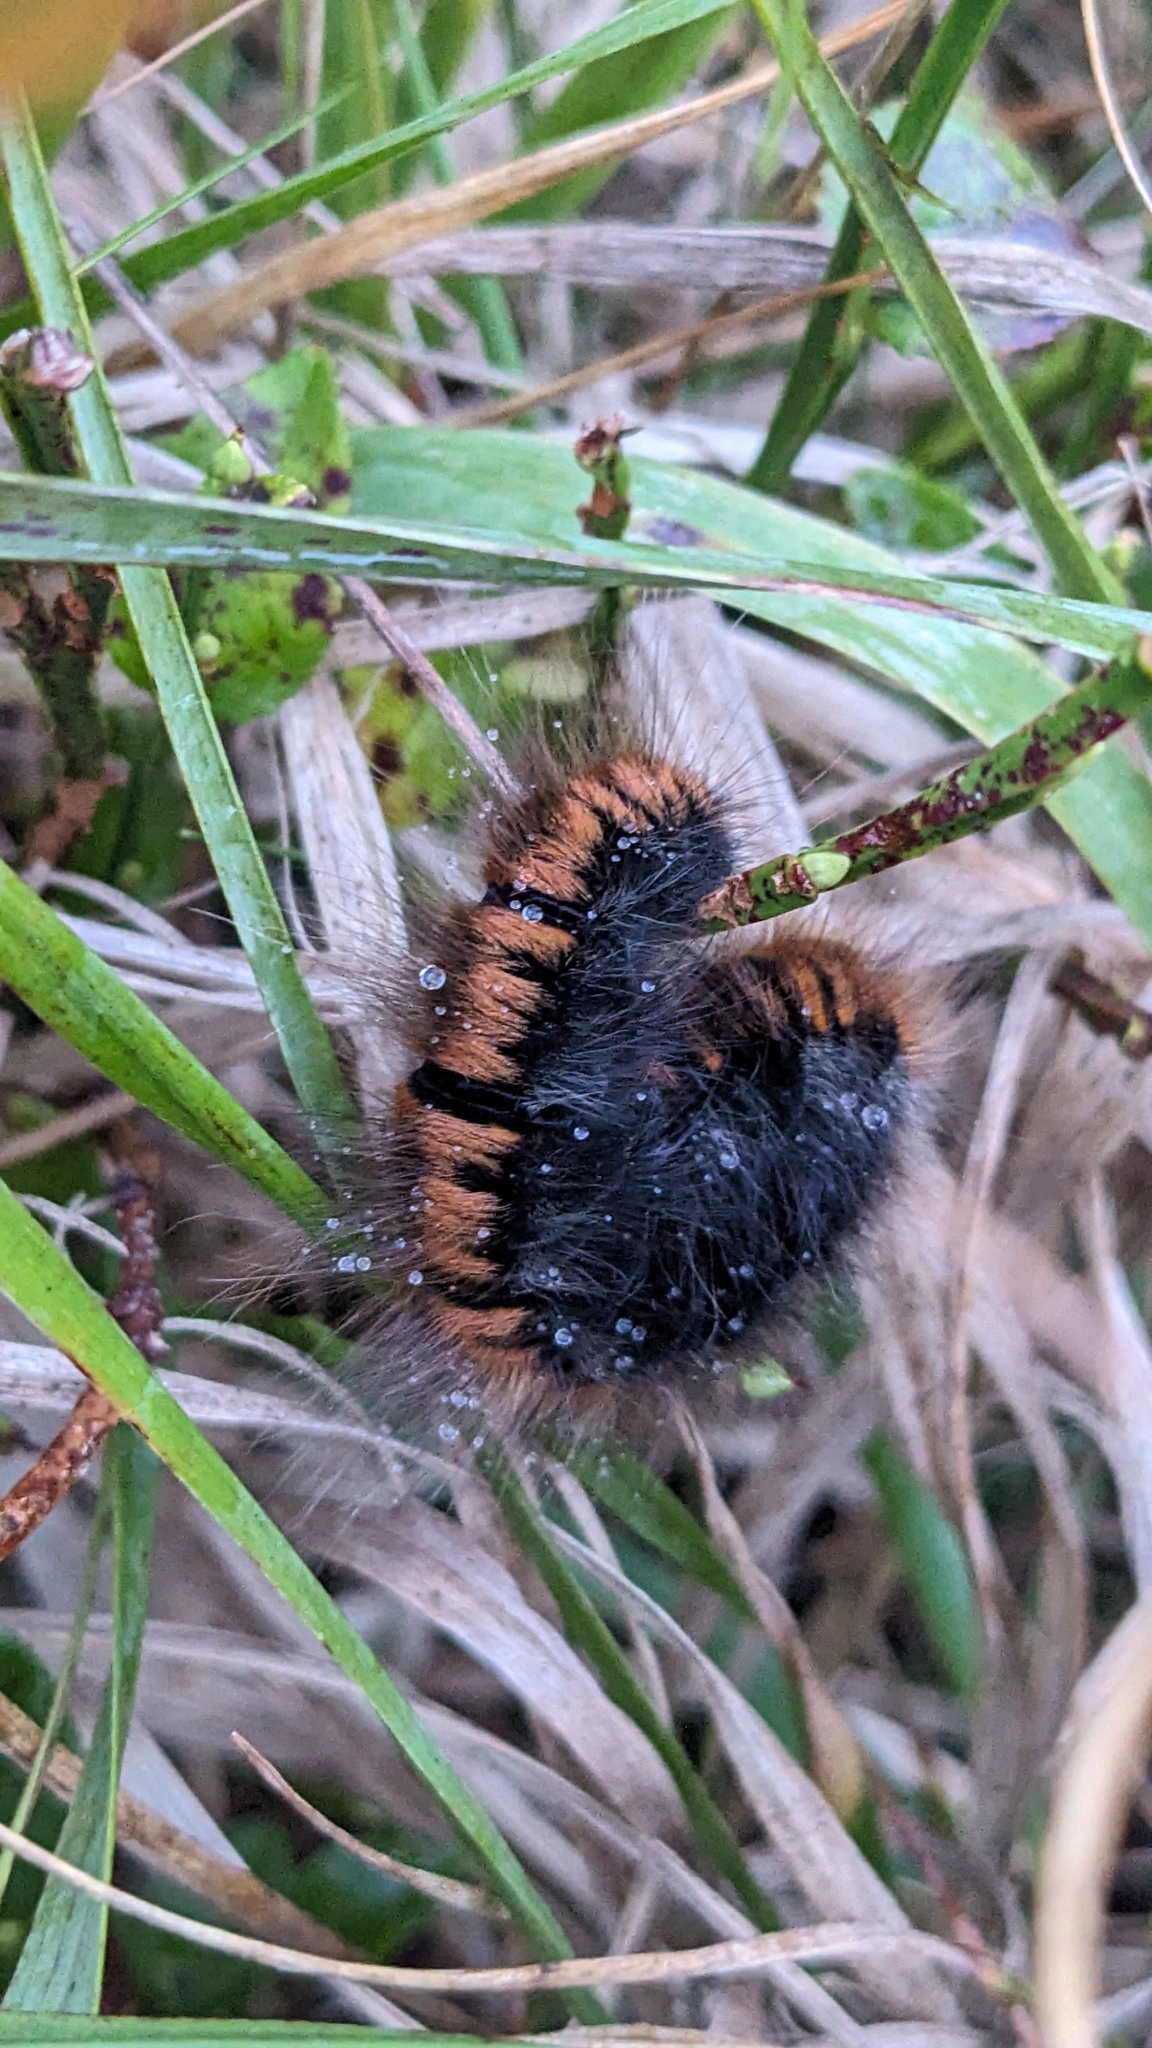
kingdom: Animalia
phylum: Arthropoda
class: Insecta
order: Lepidoptera
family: Lasiocampidae
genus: Macrothylacia
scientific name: Macrothylacia rubi
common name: Fox moth
